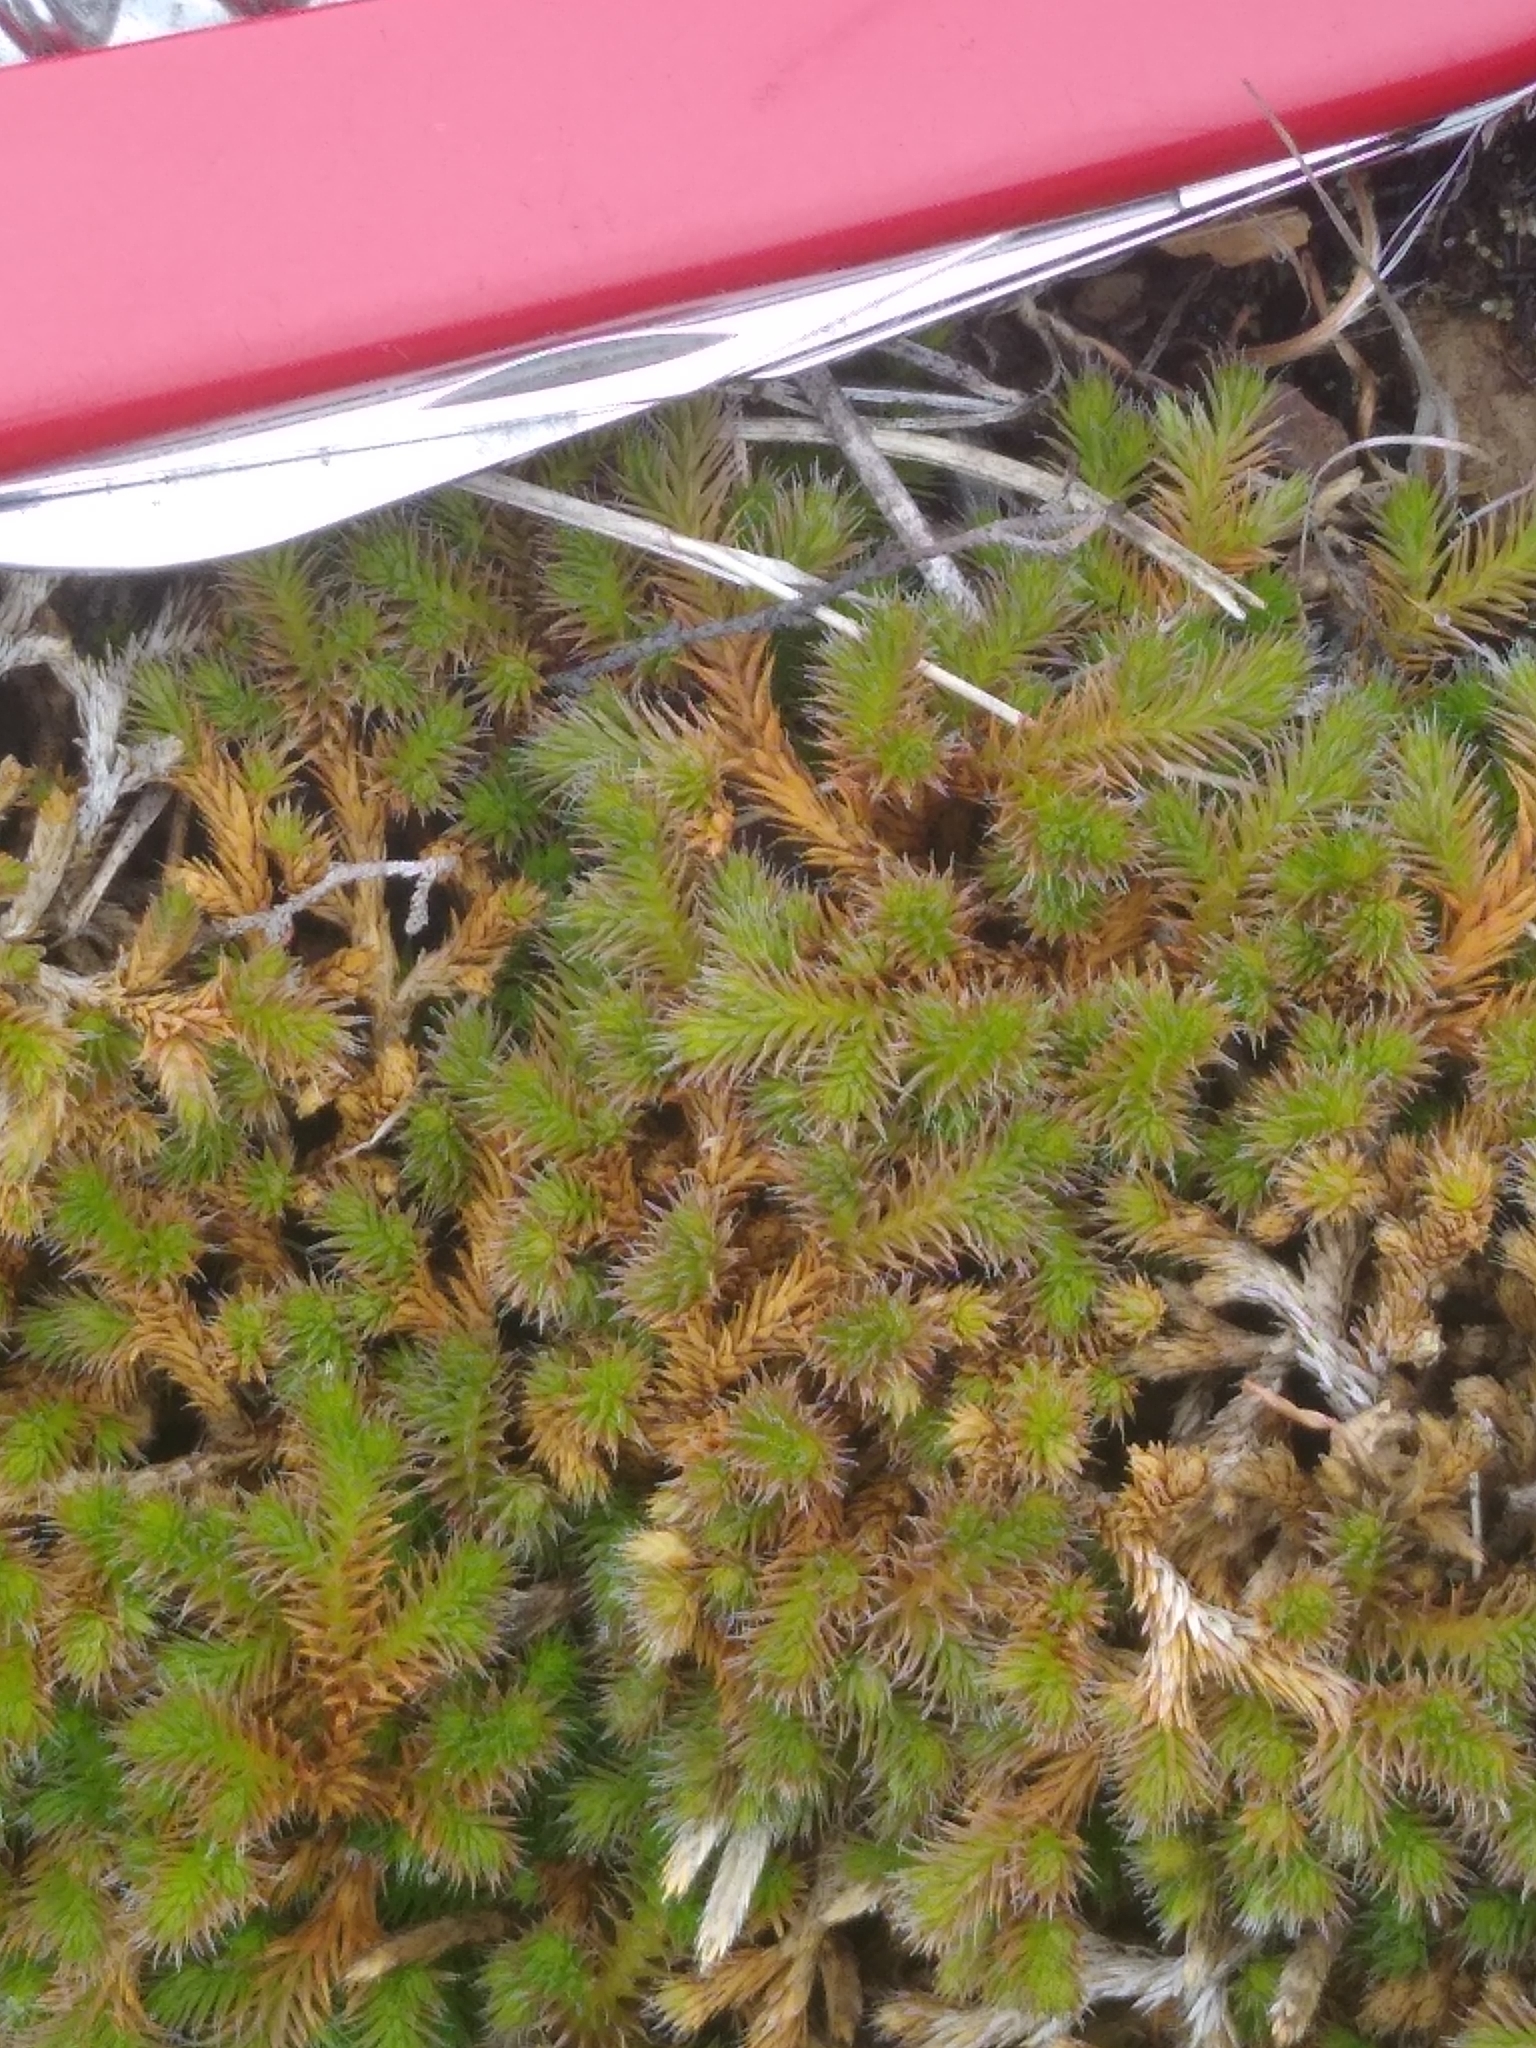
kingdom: Plantae
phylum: Tracheophyta
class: Lycopodiopsida
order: Selaginellales
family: Selaginellaceae
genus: Selaginella
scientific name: Selaginella wallacei
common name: Wallace's selaginella
